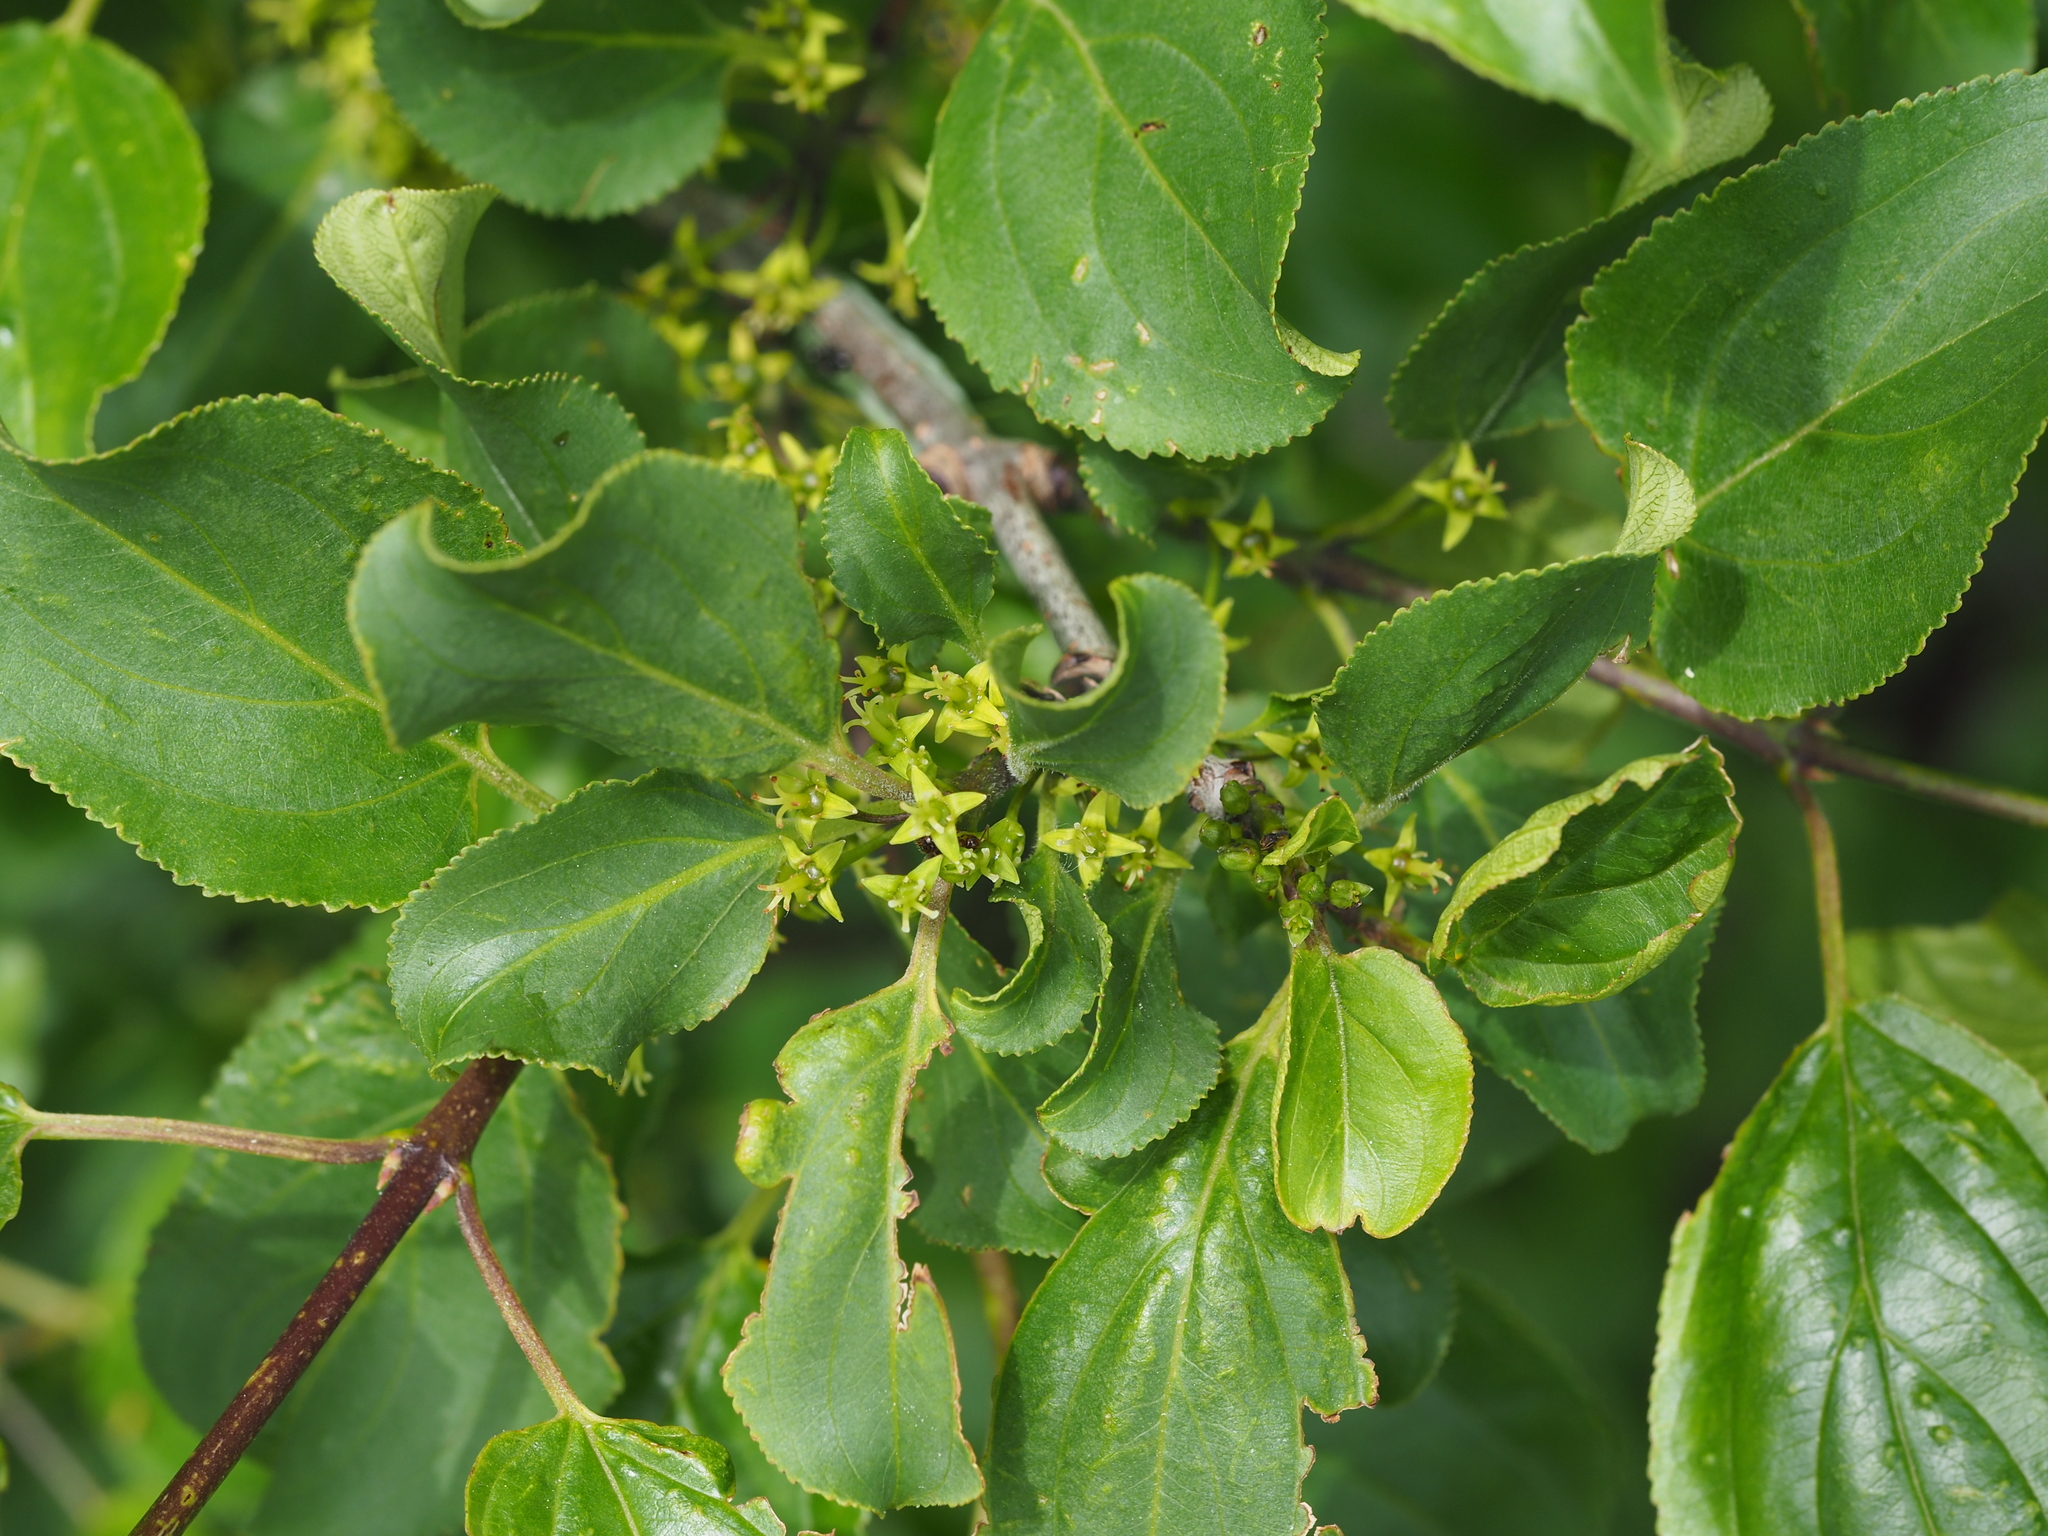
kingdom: Plantae
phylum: Tracheophyta
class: Magnoliopsida
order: Rosales
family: Rhamnaceae
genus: Rhamnus
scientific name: Rhamnus cathartica
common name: Common buckthorn
